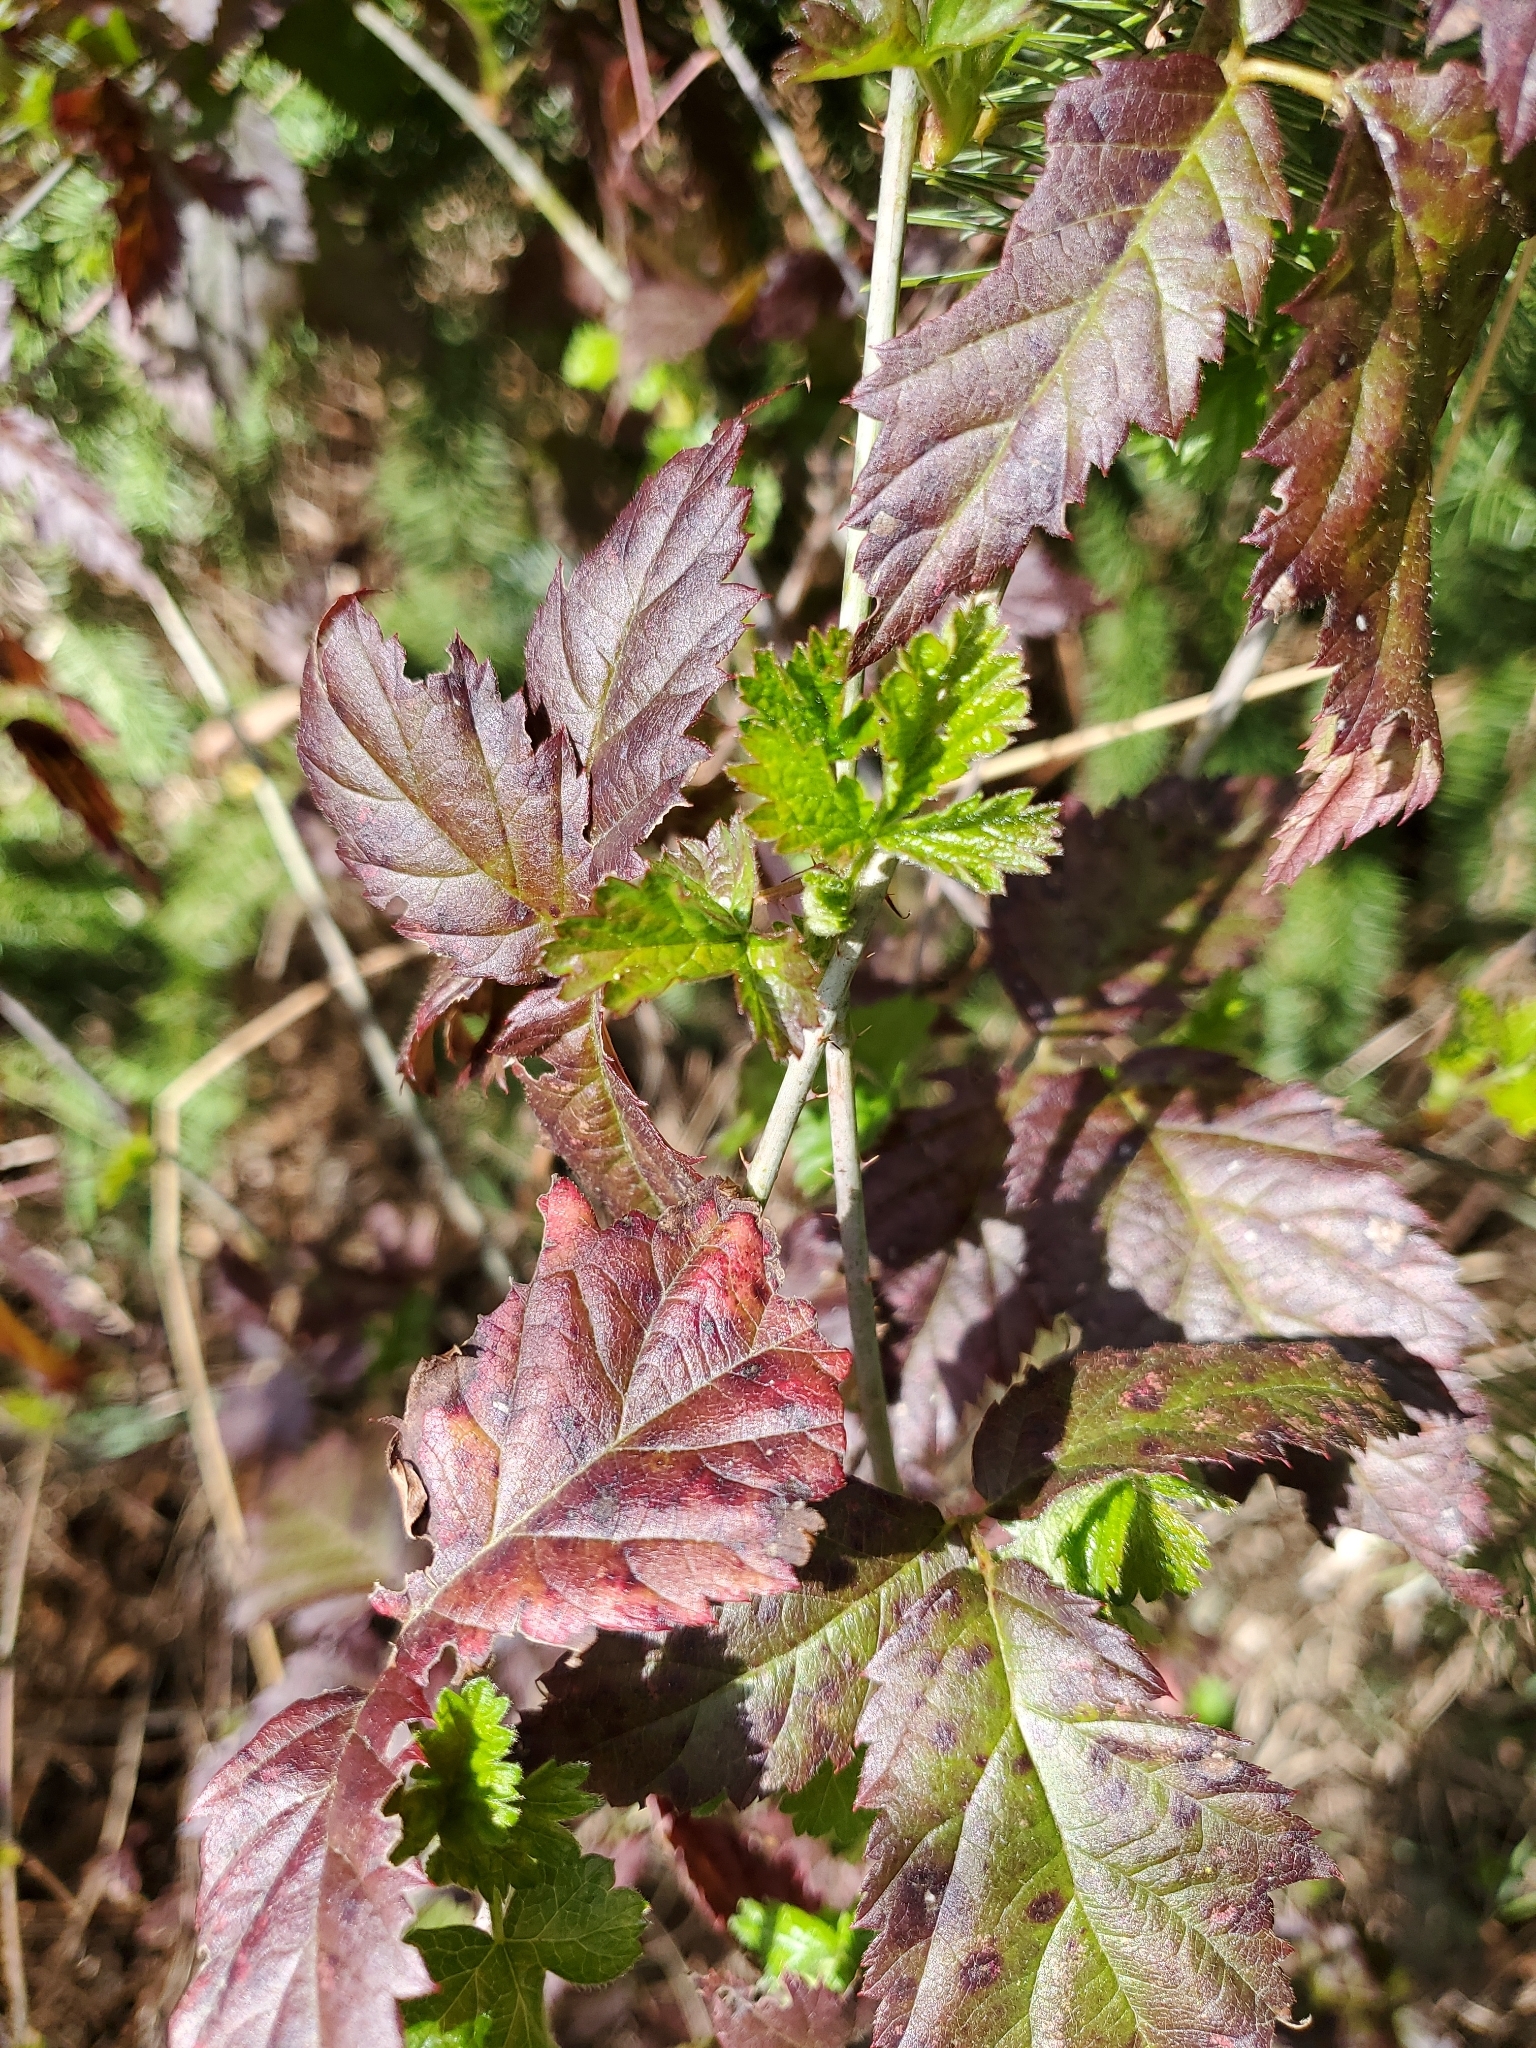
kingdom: Plantae
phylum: Tracheophyta
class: Magnoliopsida
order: Rosales
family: Rosaceae
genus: Rubus
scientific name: Rubus ursinus
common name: Pacific blackberry
